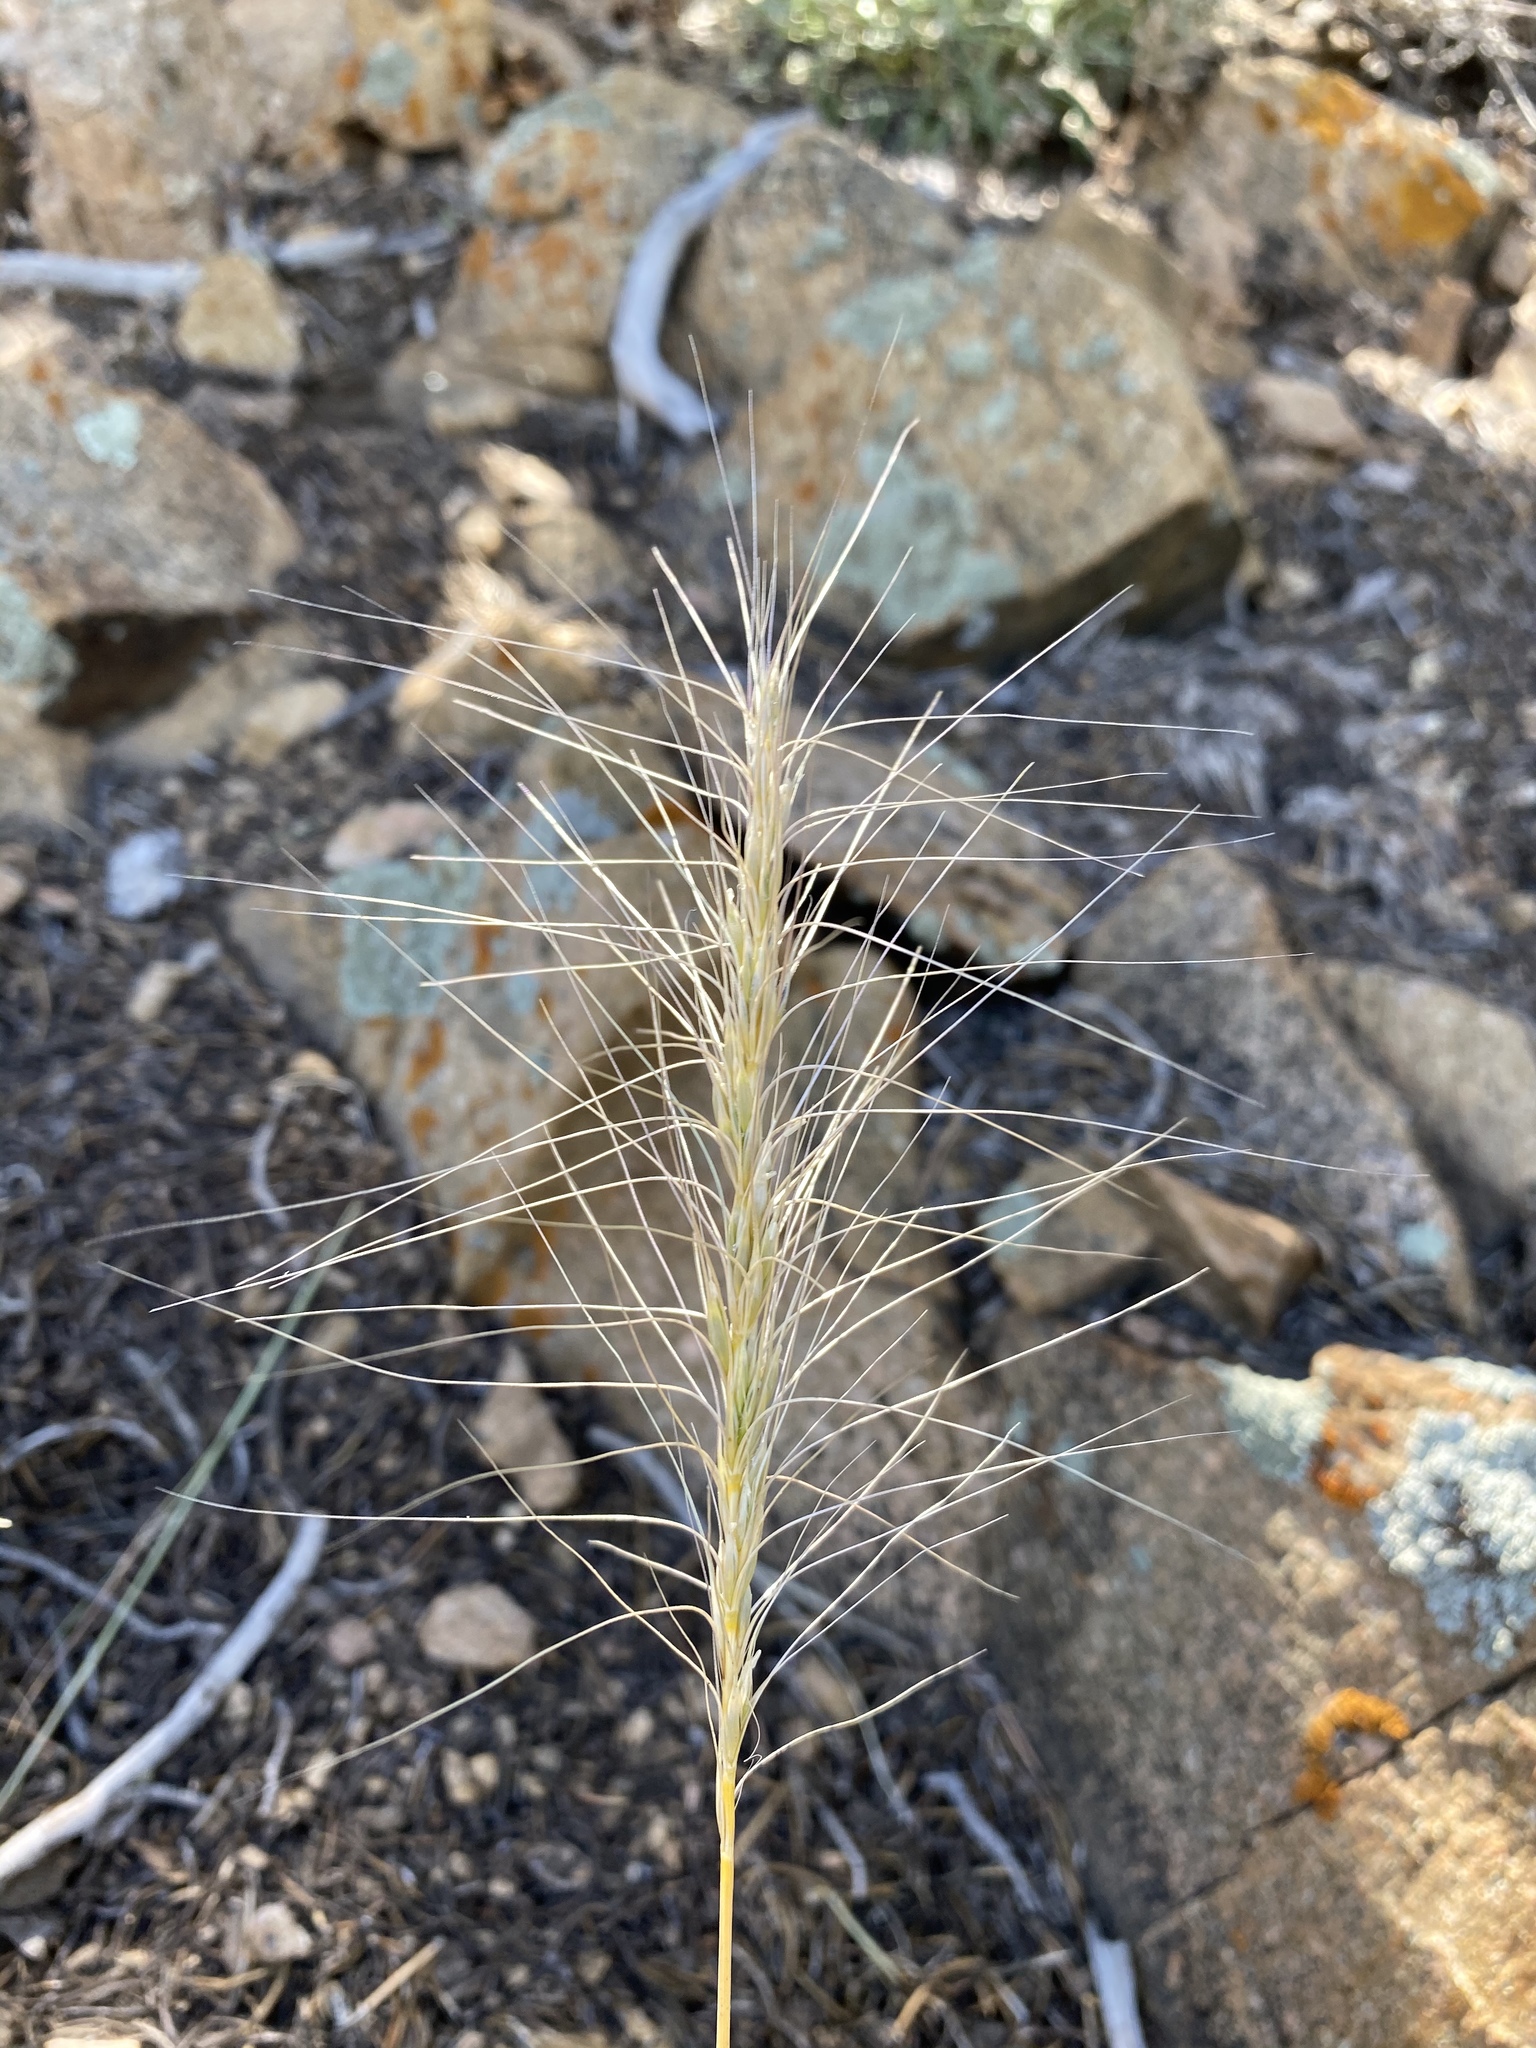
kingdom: Plantae
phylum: Tracheophyta
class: Liliopsida
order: Poales
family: Poaceae
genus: Elymus
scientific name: Elymus elymoides
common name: Bottlebrush squirreltail
